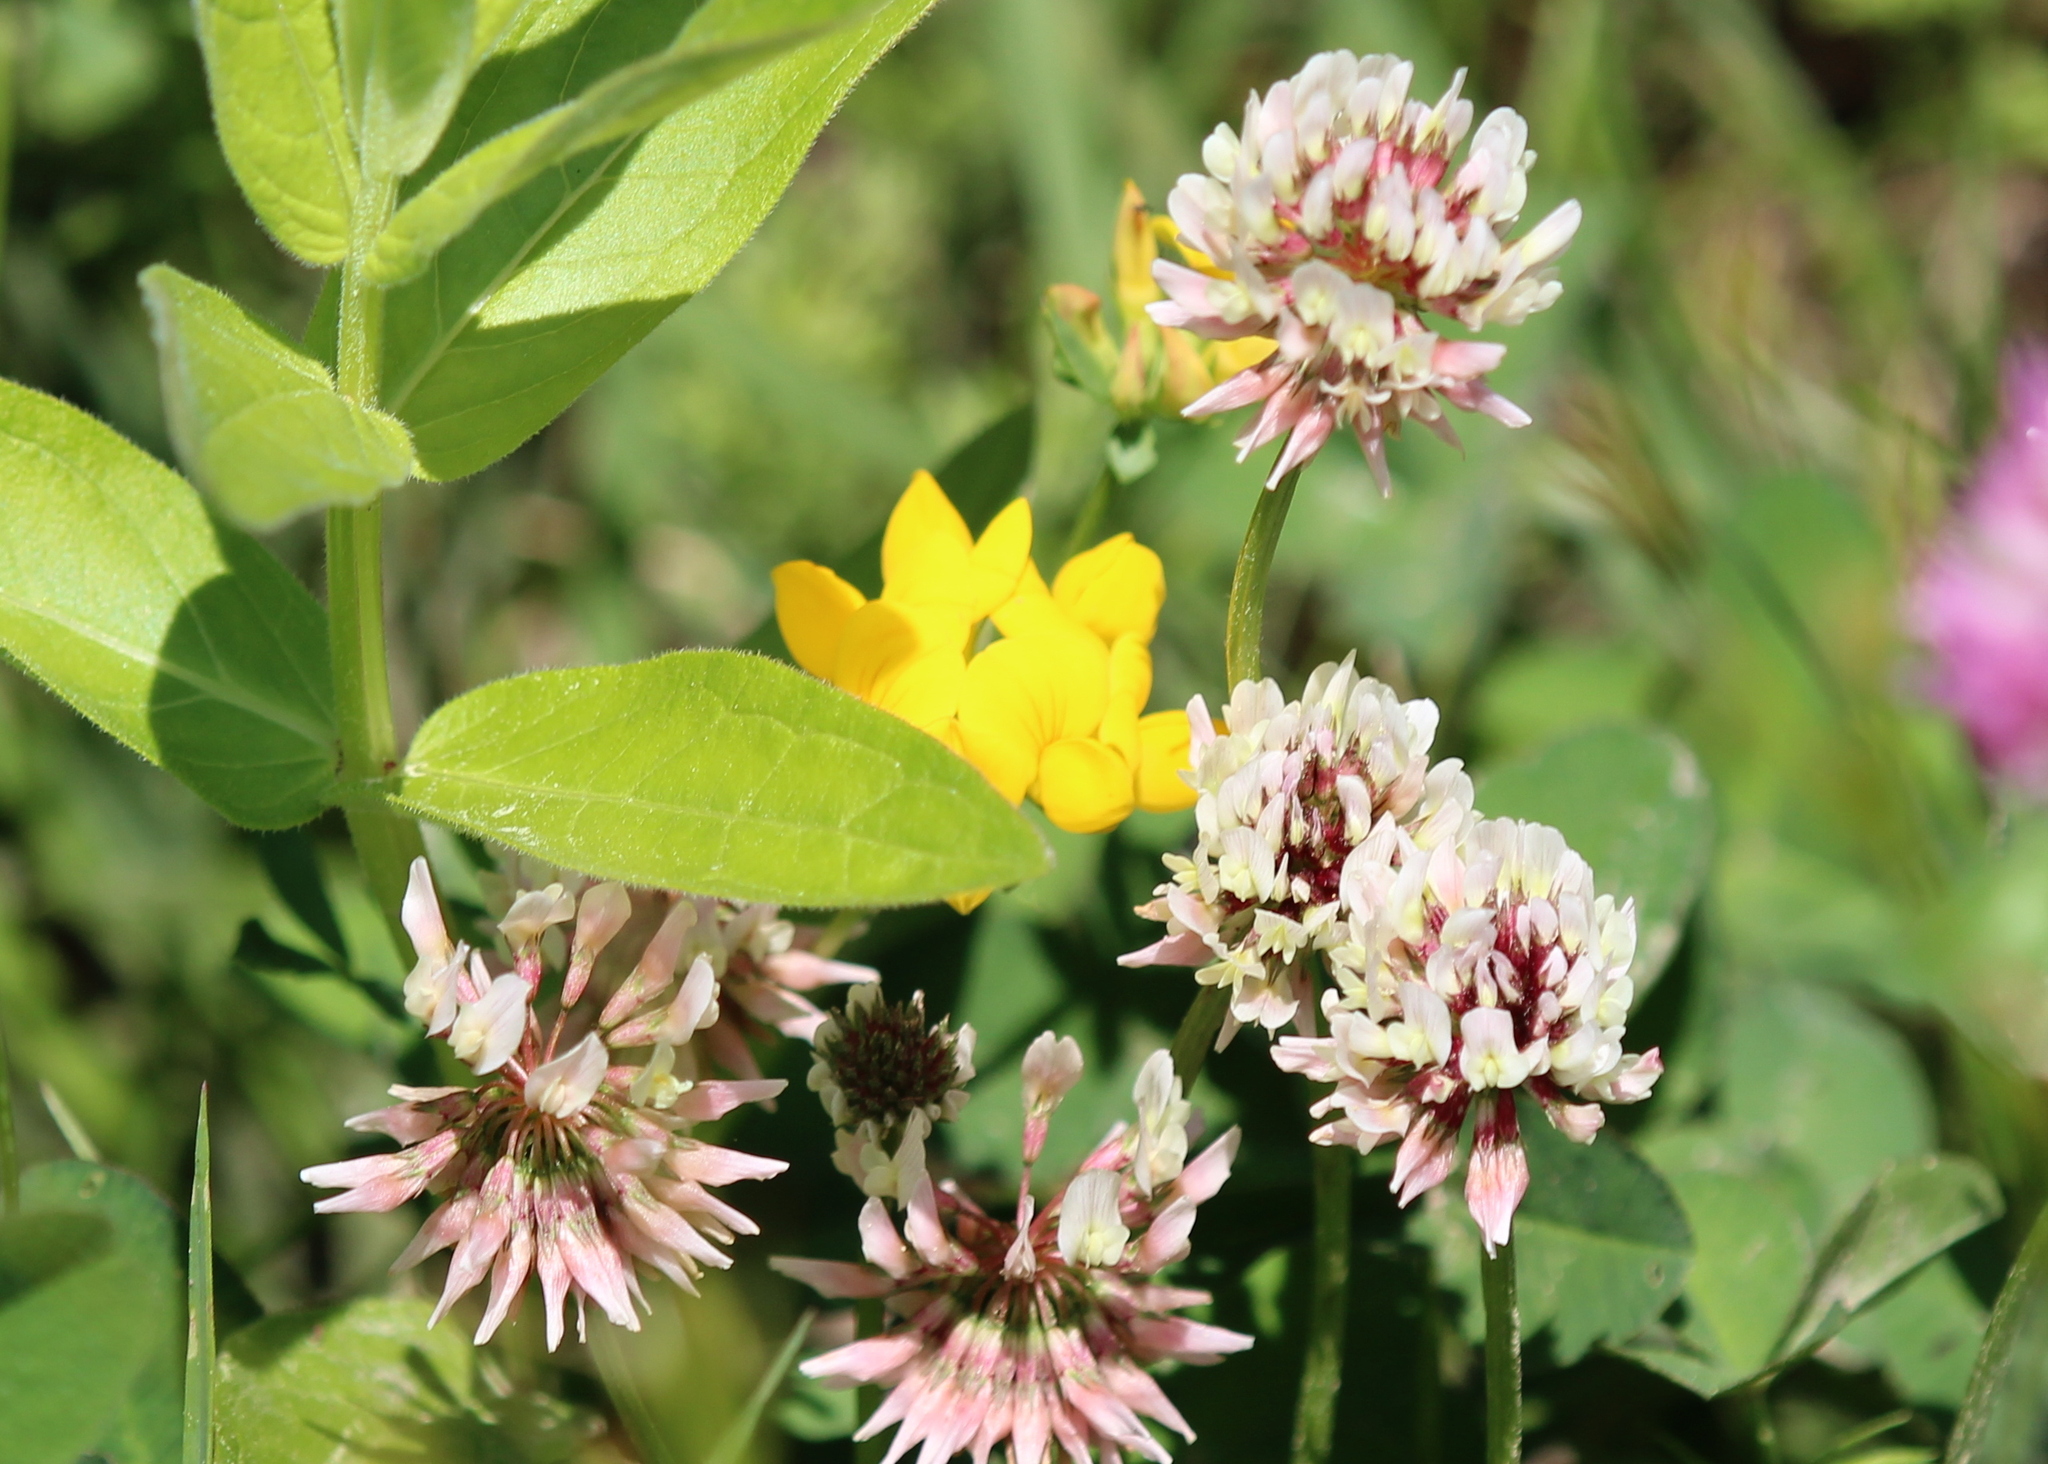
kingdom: Plantae
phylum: Tracheophyta
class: Magnoliopsida
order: Fabales
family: Fabaceae
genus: Trifolium
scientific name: Trifolium repens
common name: White clover
